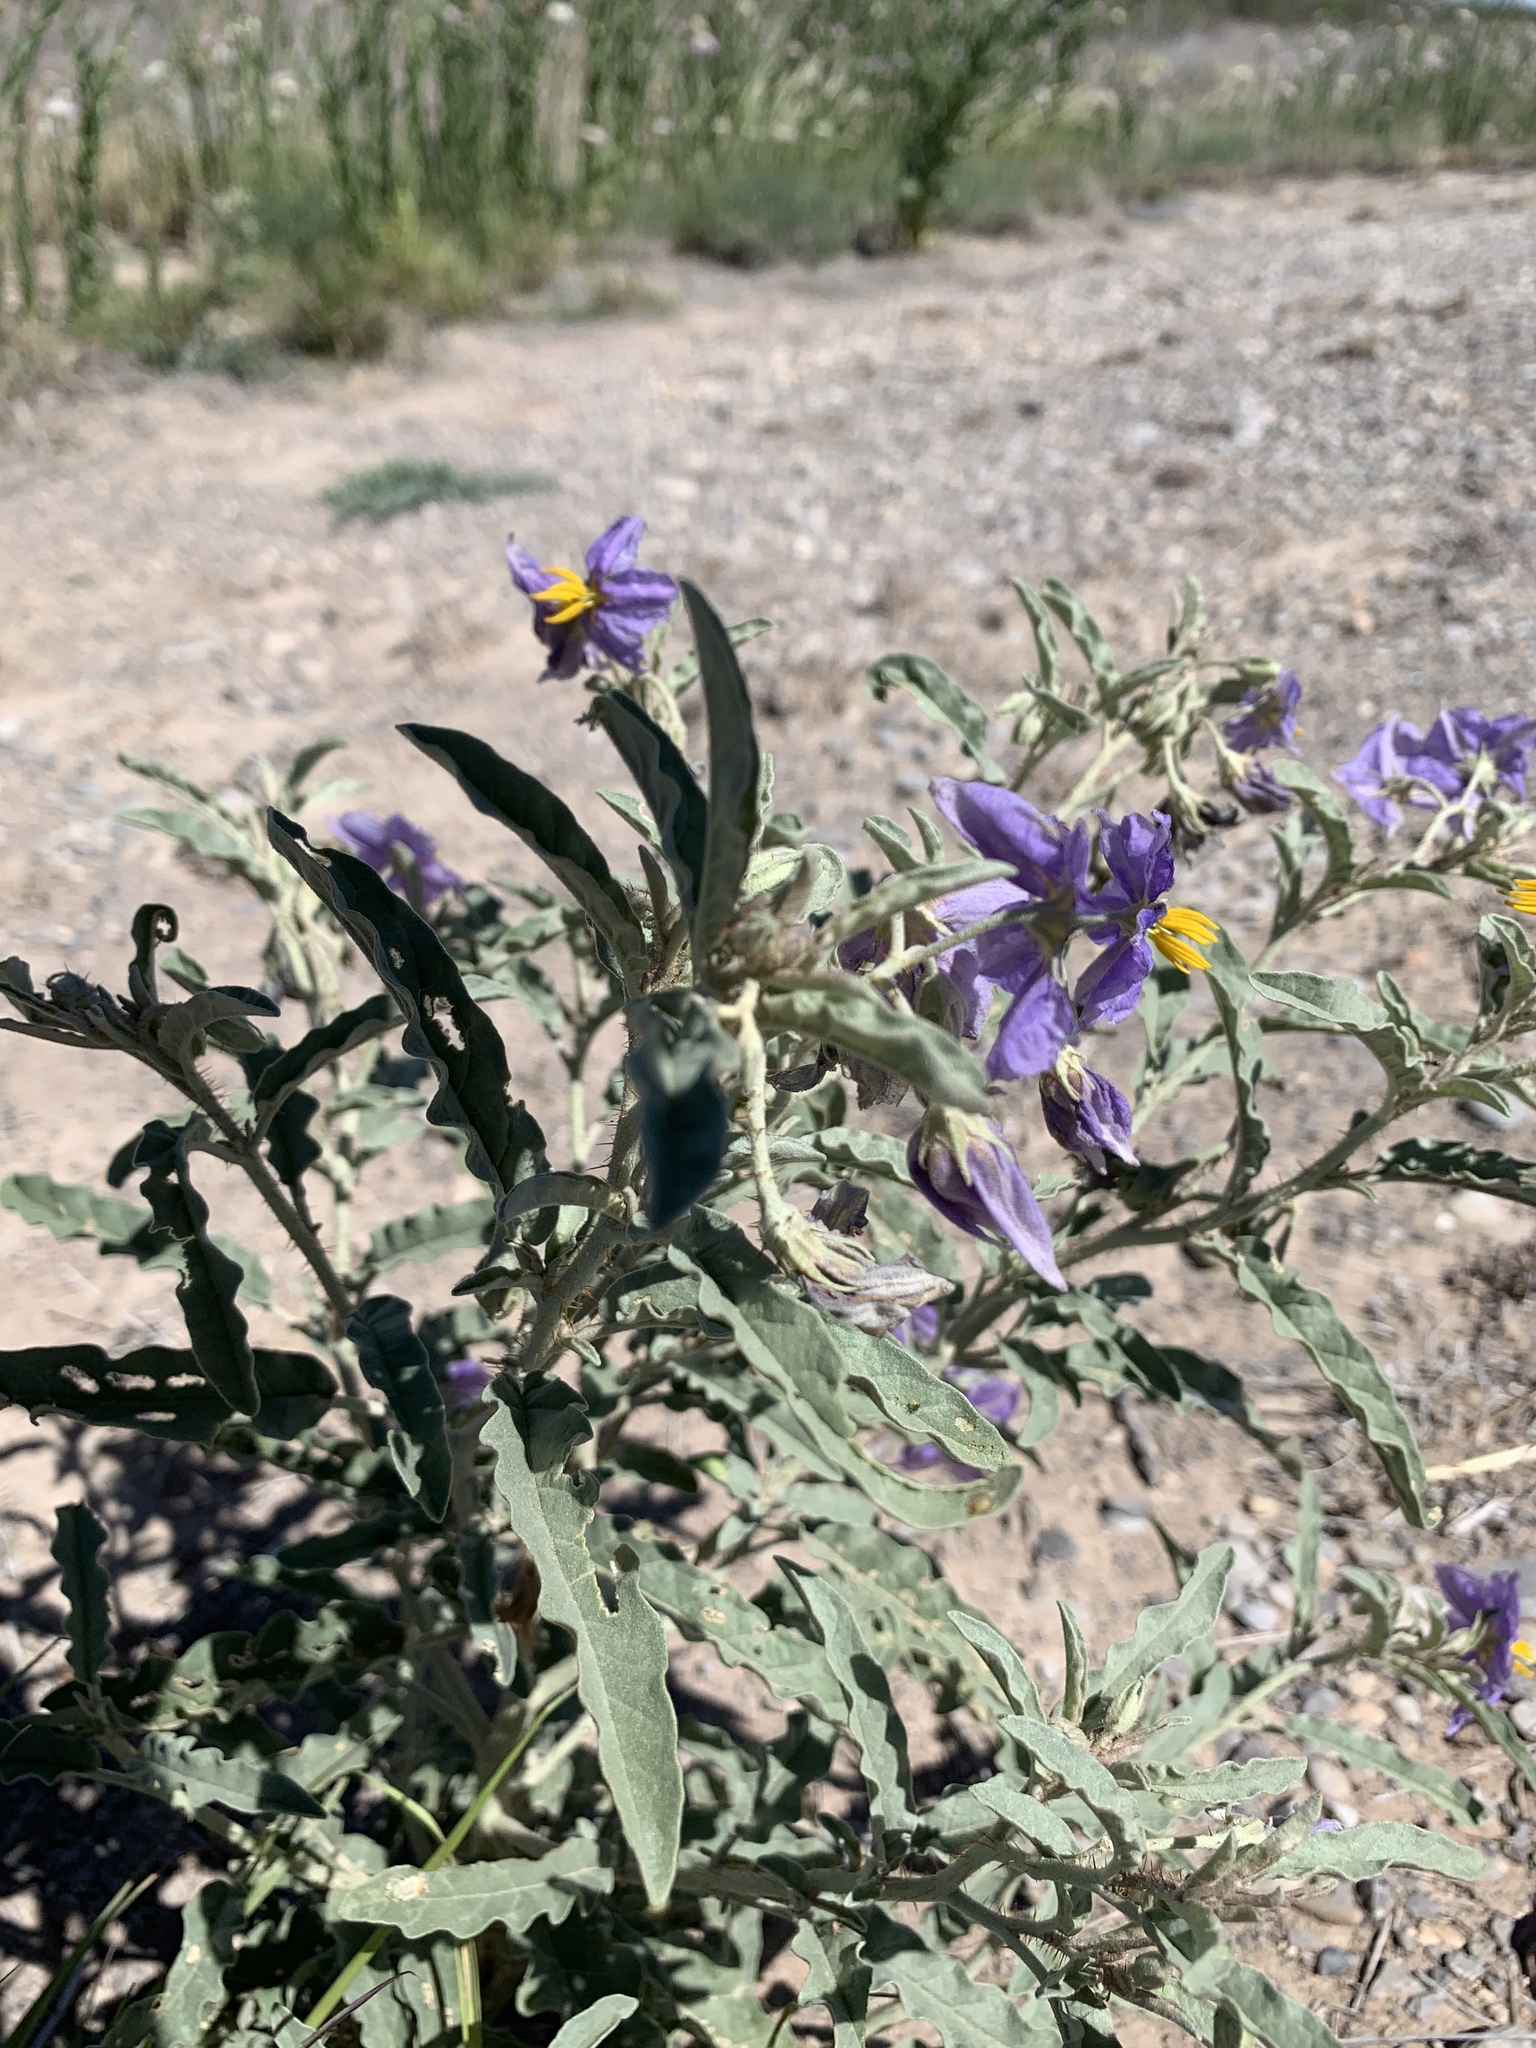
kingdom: Plantae
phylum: Tracheophyta
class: Magnoliopsida
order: Solanales
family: Solanaceae
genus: Solanum
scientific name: Solanum elaeagnifolium
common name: Silverleaf nightshade
